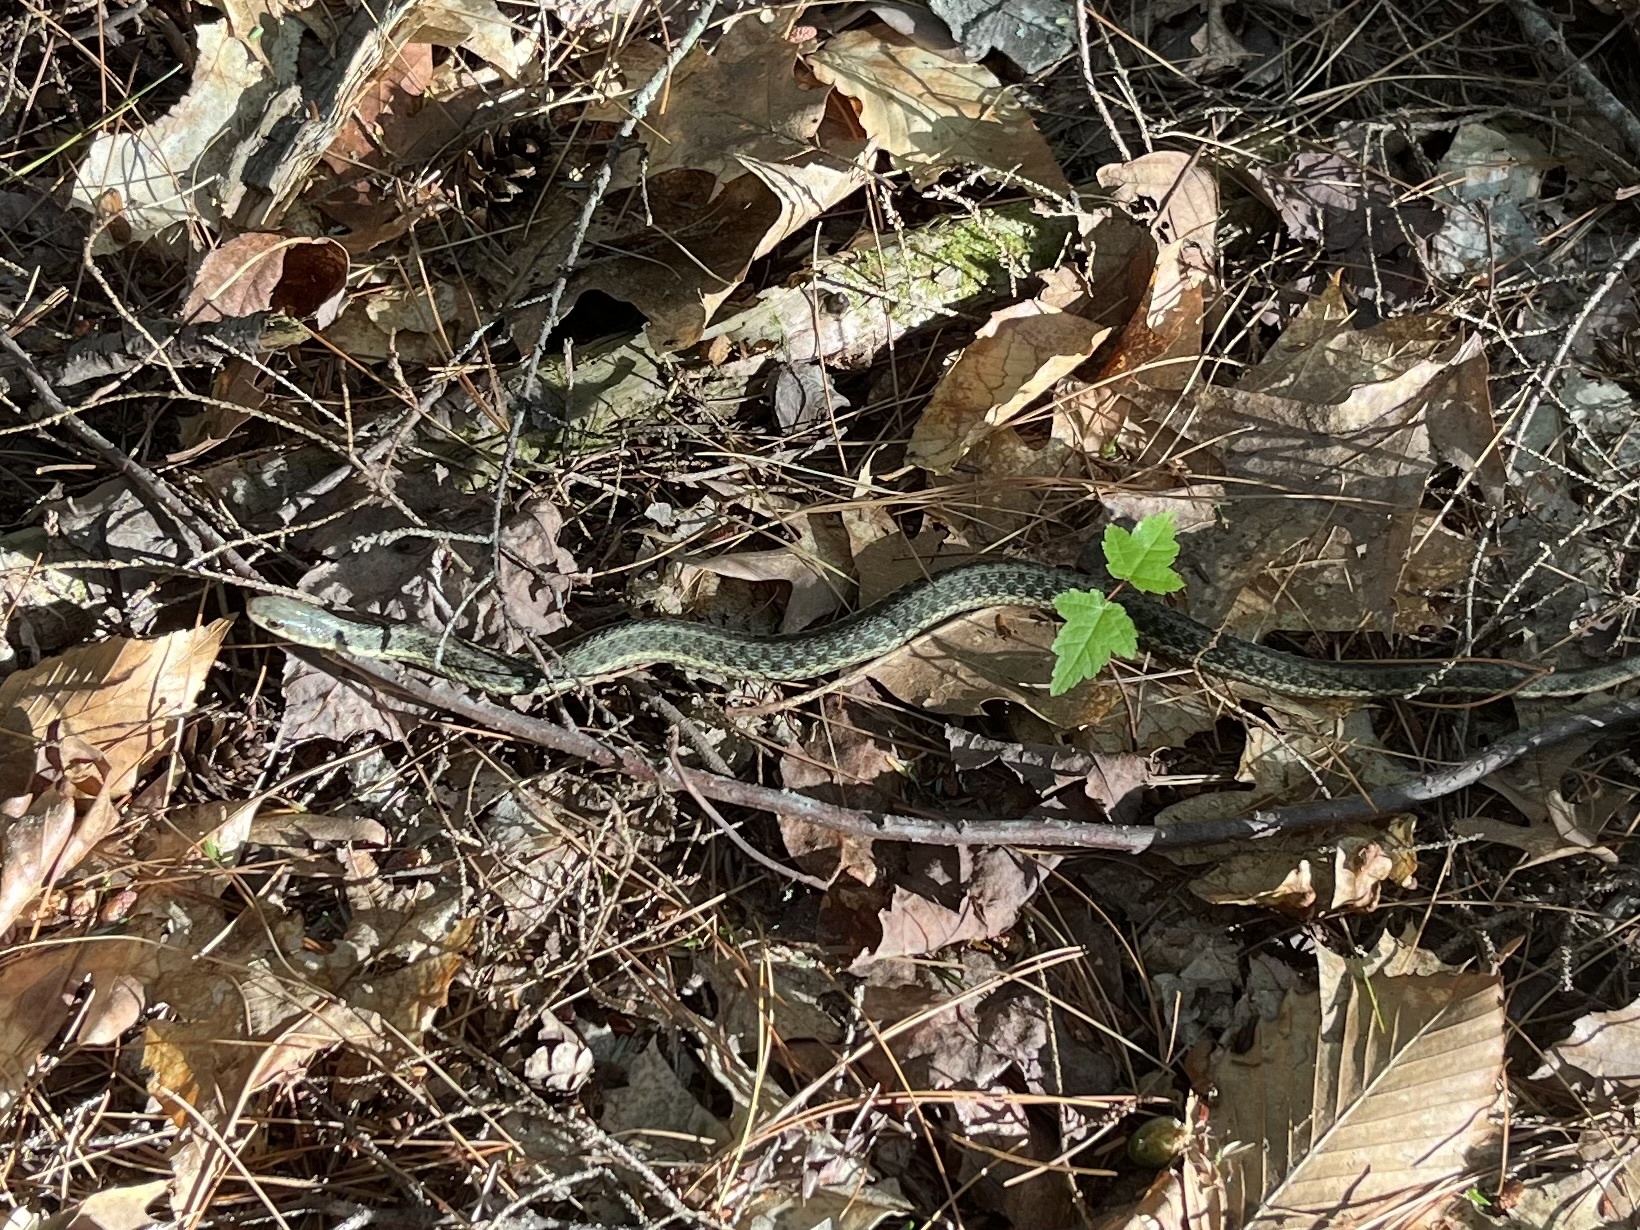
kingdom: Animalia
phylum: Chordata
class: Squamata
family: Colubridae
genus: Thamnophis
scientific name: Thamnophis sirtalis
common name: Common garter snake
